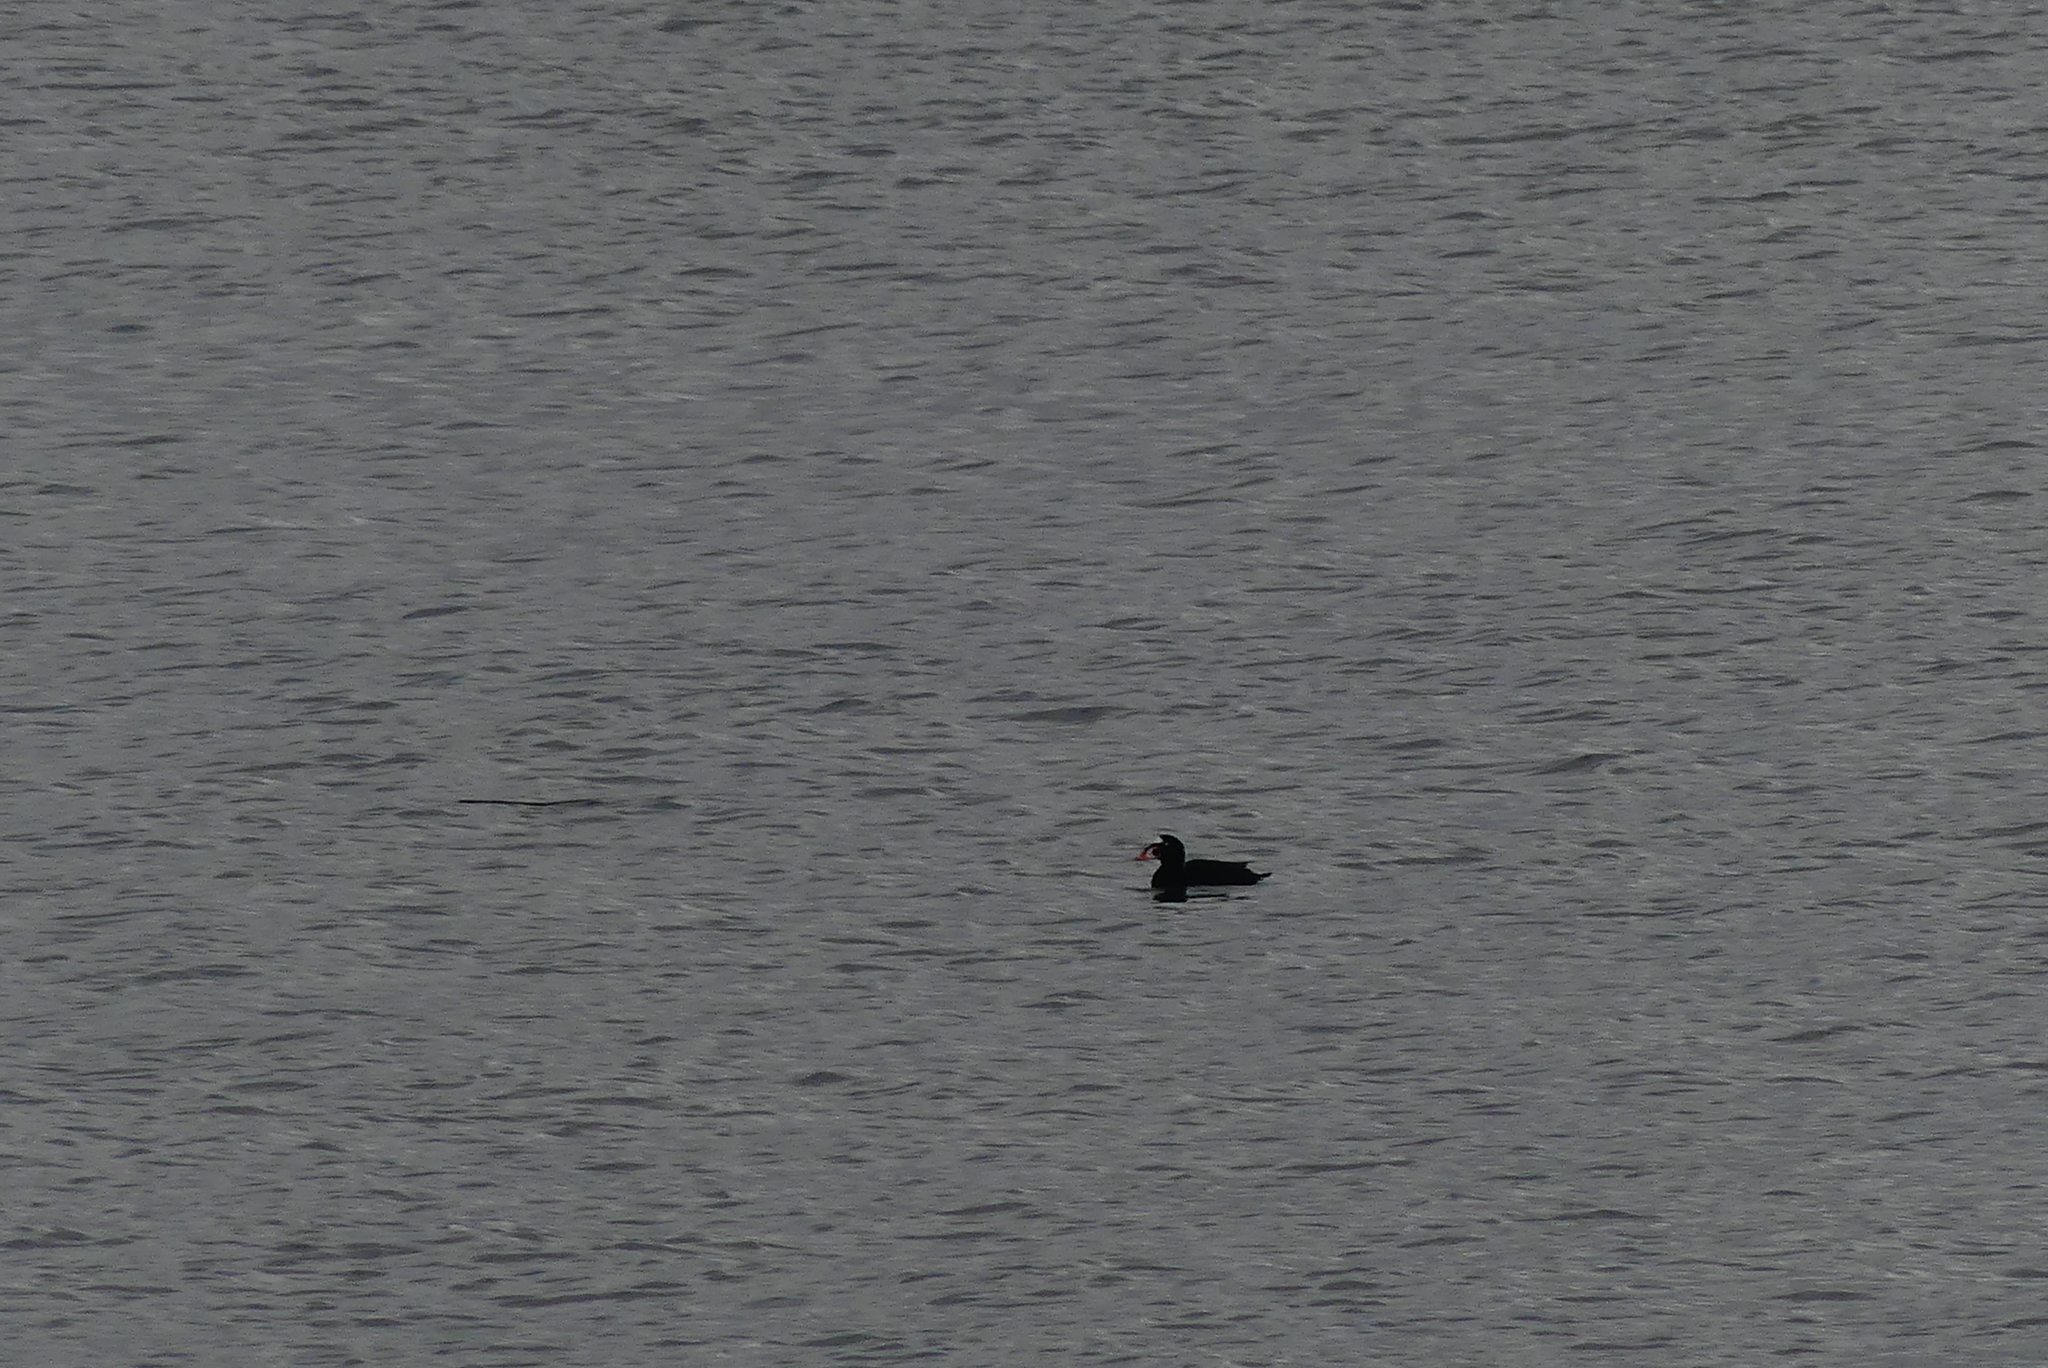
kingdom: Animalia
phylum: Chordata
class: Aves
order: Anseriformes
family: Anatidae
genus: Melanitta
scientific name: Melanitta perspicillata
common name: Surf scoter
